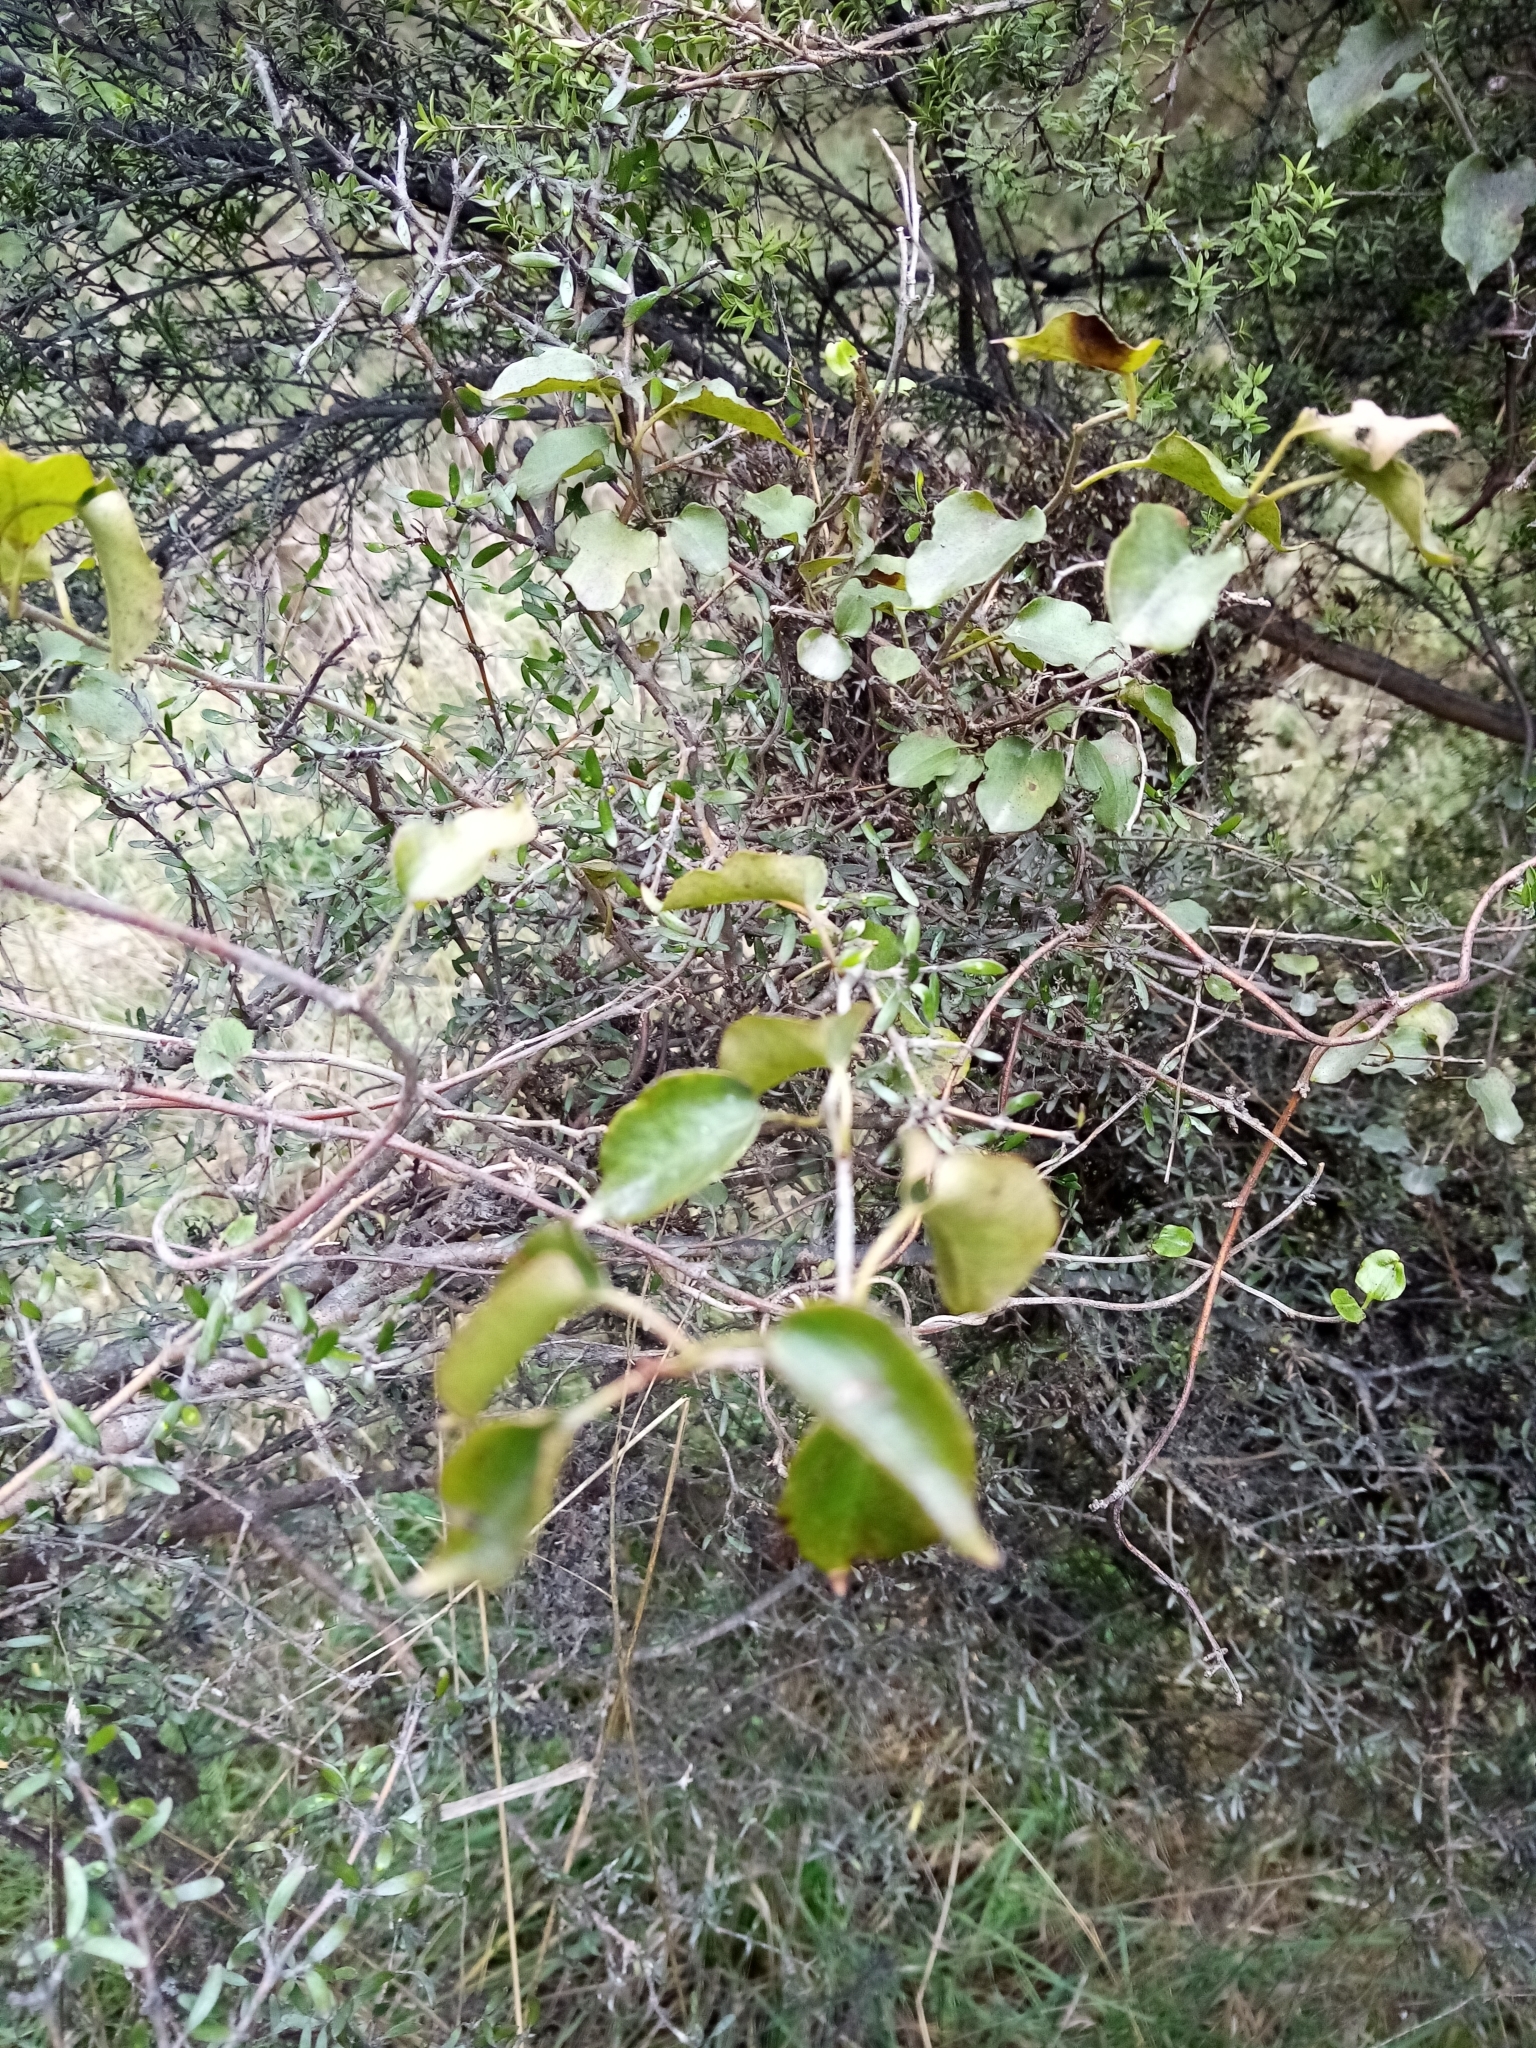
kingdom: Plantae
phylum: Tracheophyta
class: Magnoliopsida
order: Caryophyllales
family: Polygonaceae
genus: Muehlenbeckia
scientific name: Muehlenbeckia australis
